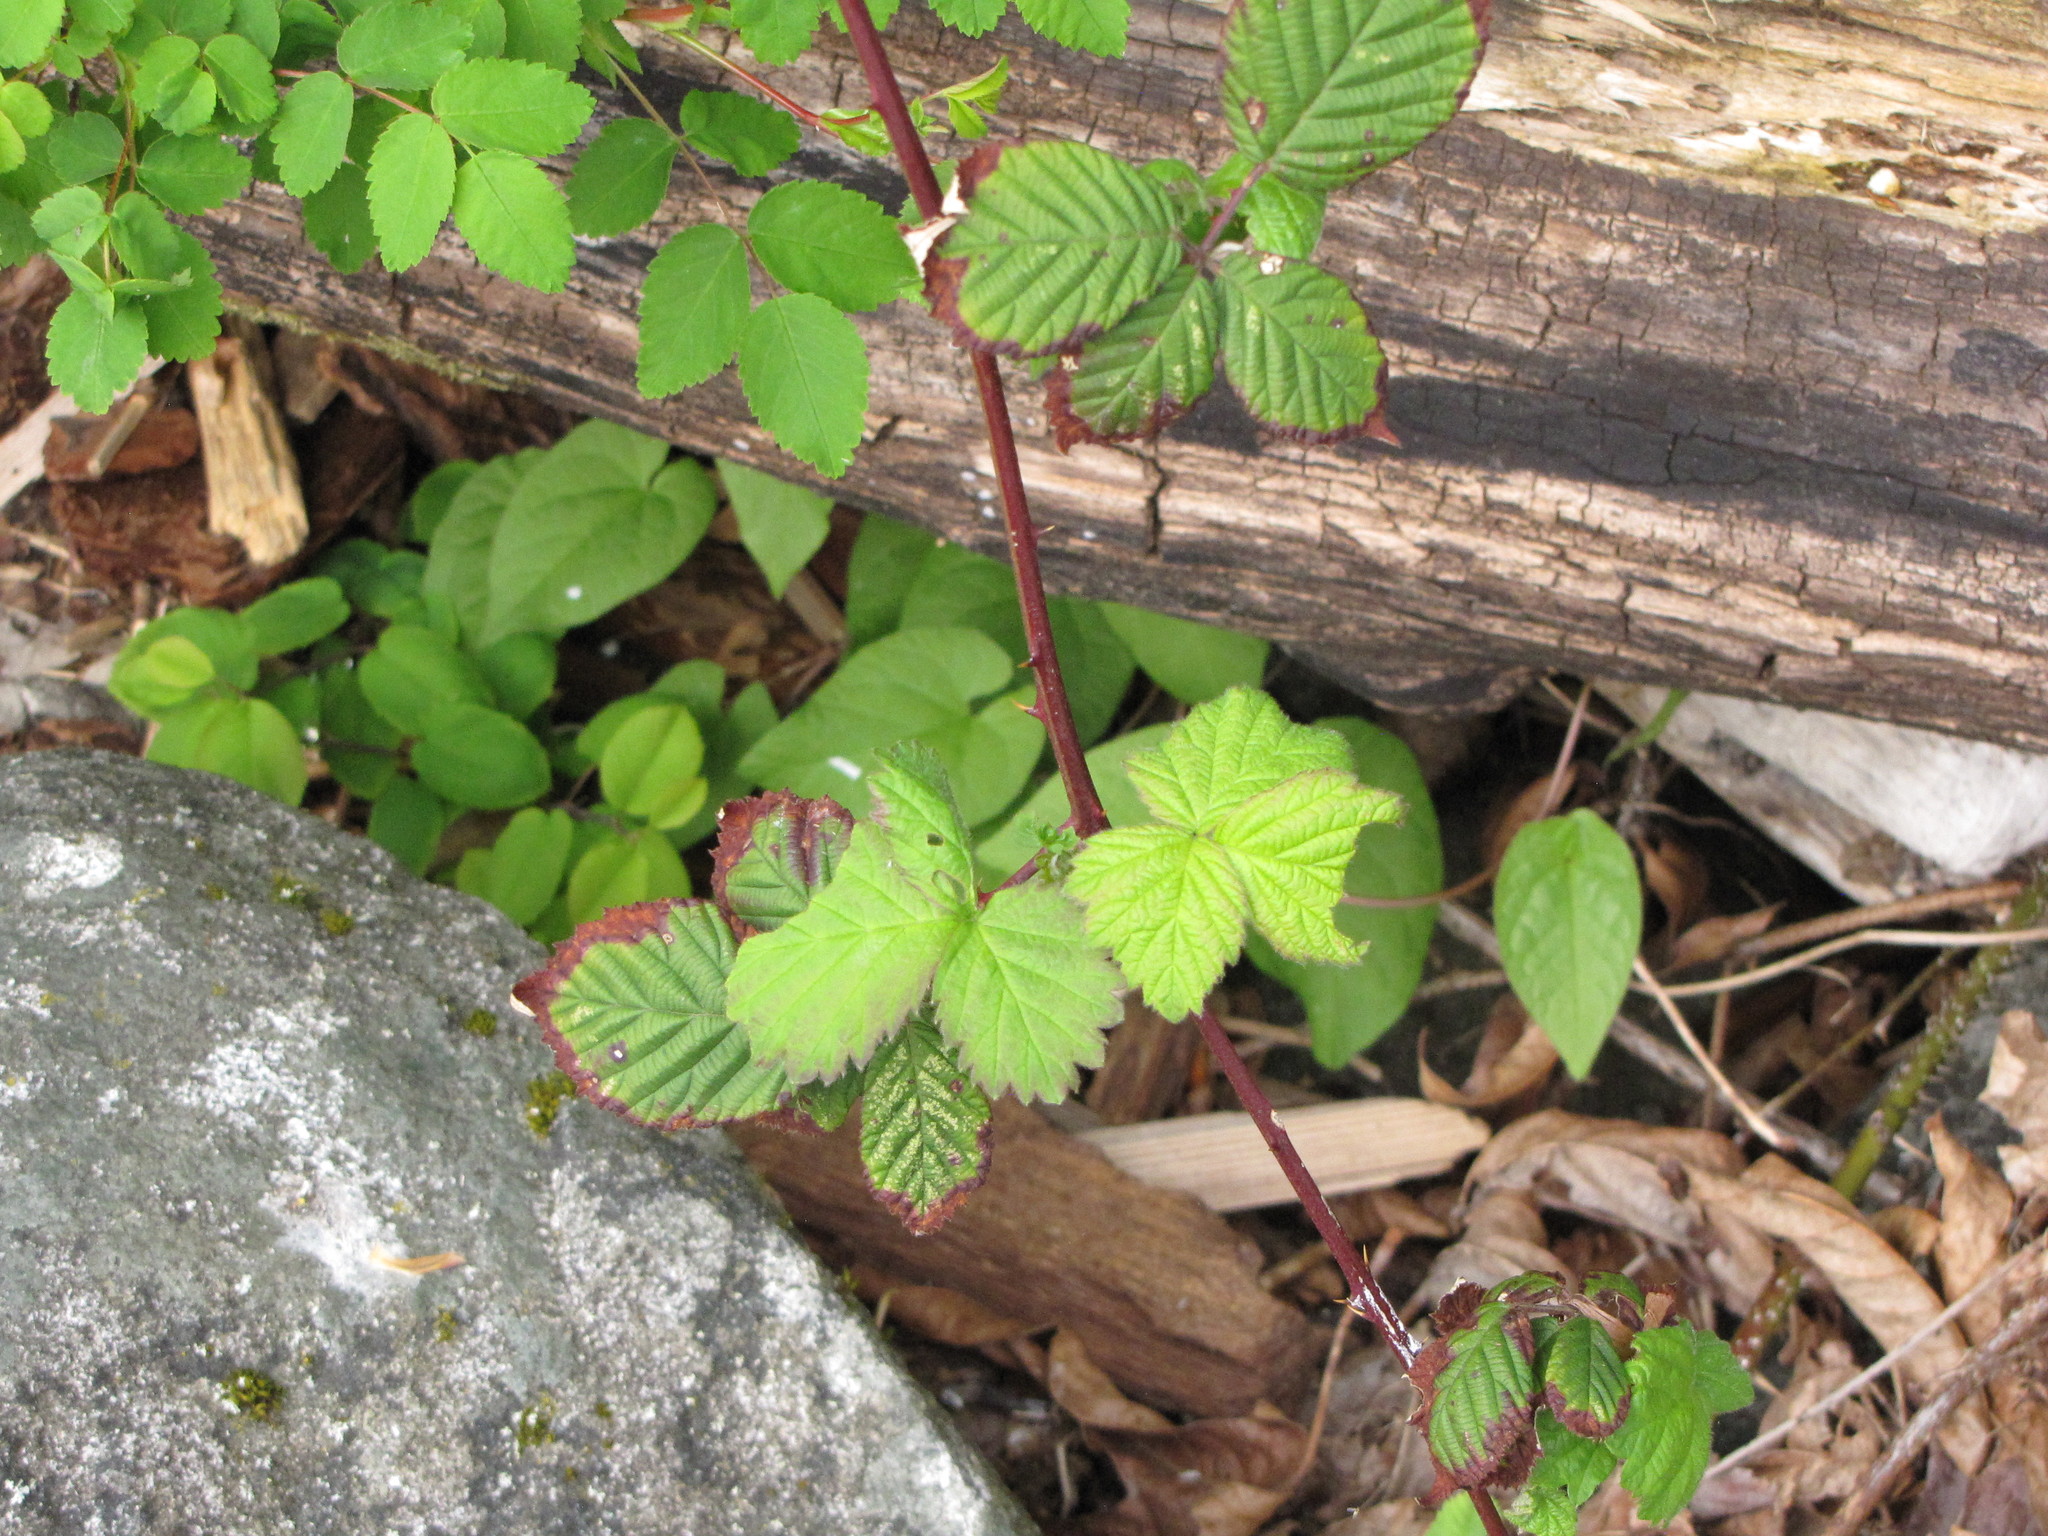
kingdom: Plantae
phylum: Tracheophyta
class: Magnoliopsida
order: Rosales
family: Rosaceae
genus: Rubus
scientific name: Rubus armeniacus
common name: Himalayan blackberry
